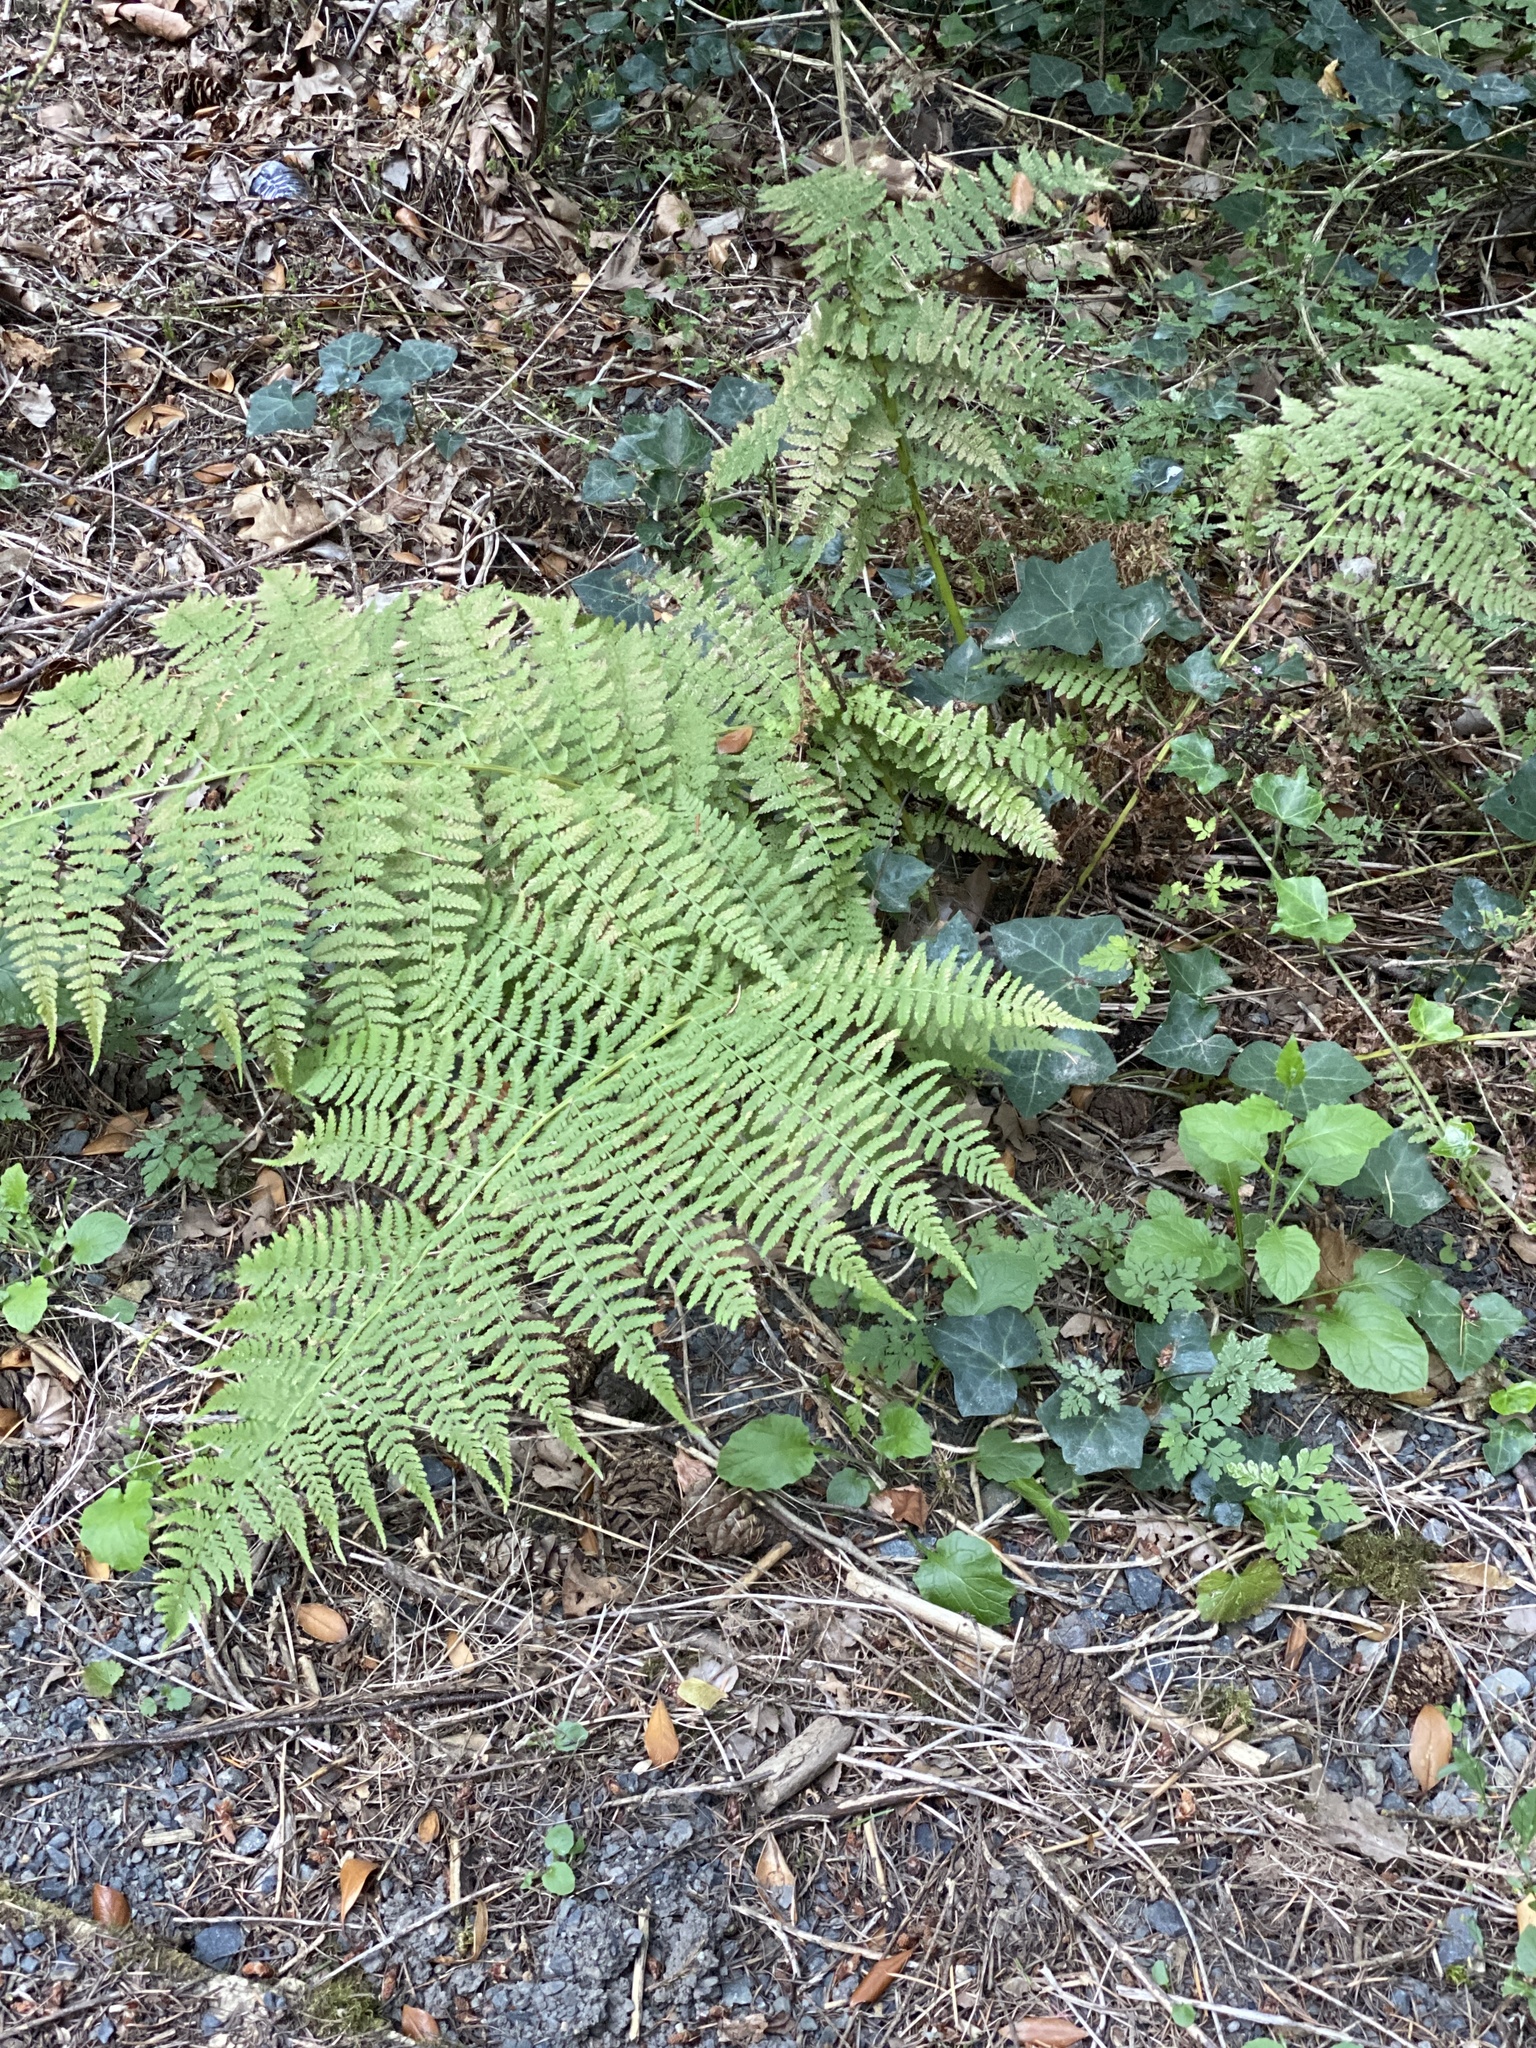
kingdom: Plantae
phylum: Tracheophyta
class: Polypodiopsida
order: Polypodiales
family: Athyriaceae
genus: Athyrium
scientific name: Athyrium filix-femina
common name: Lady fern
